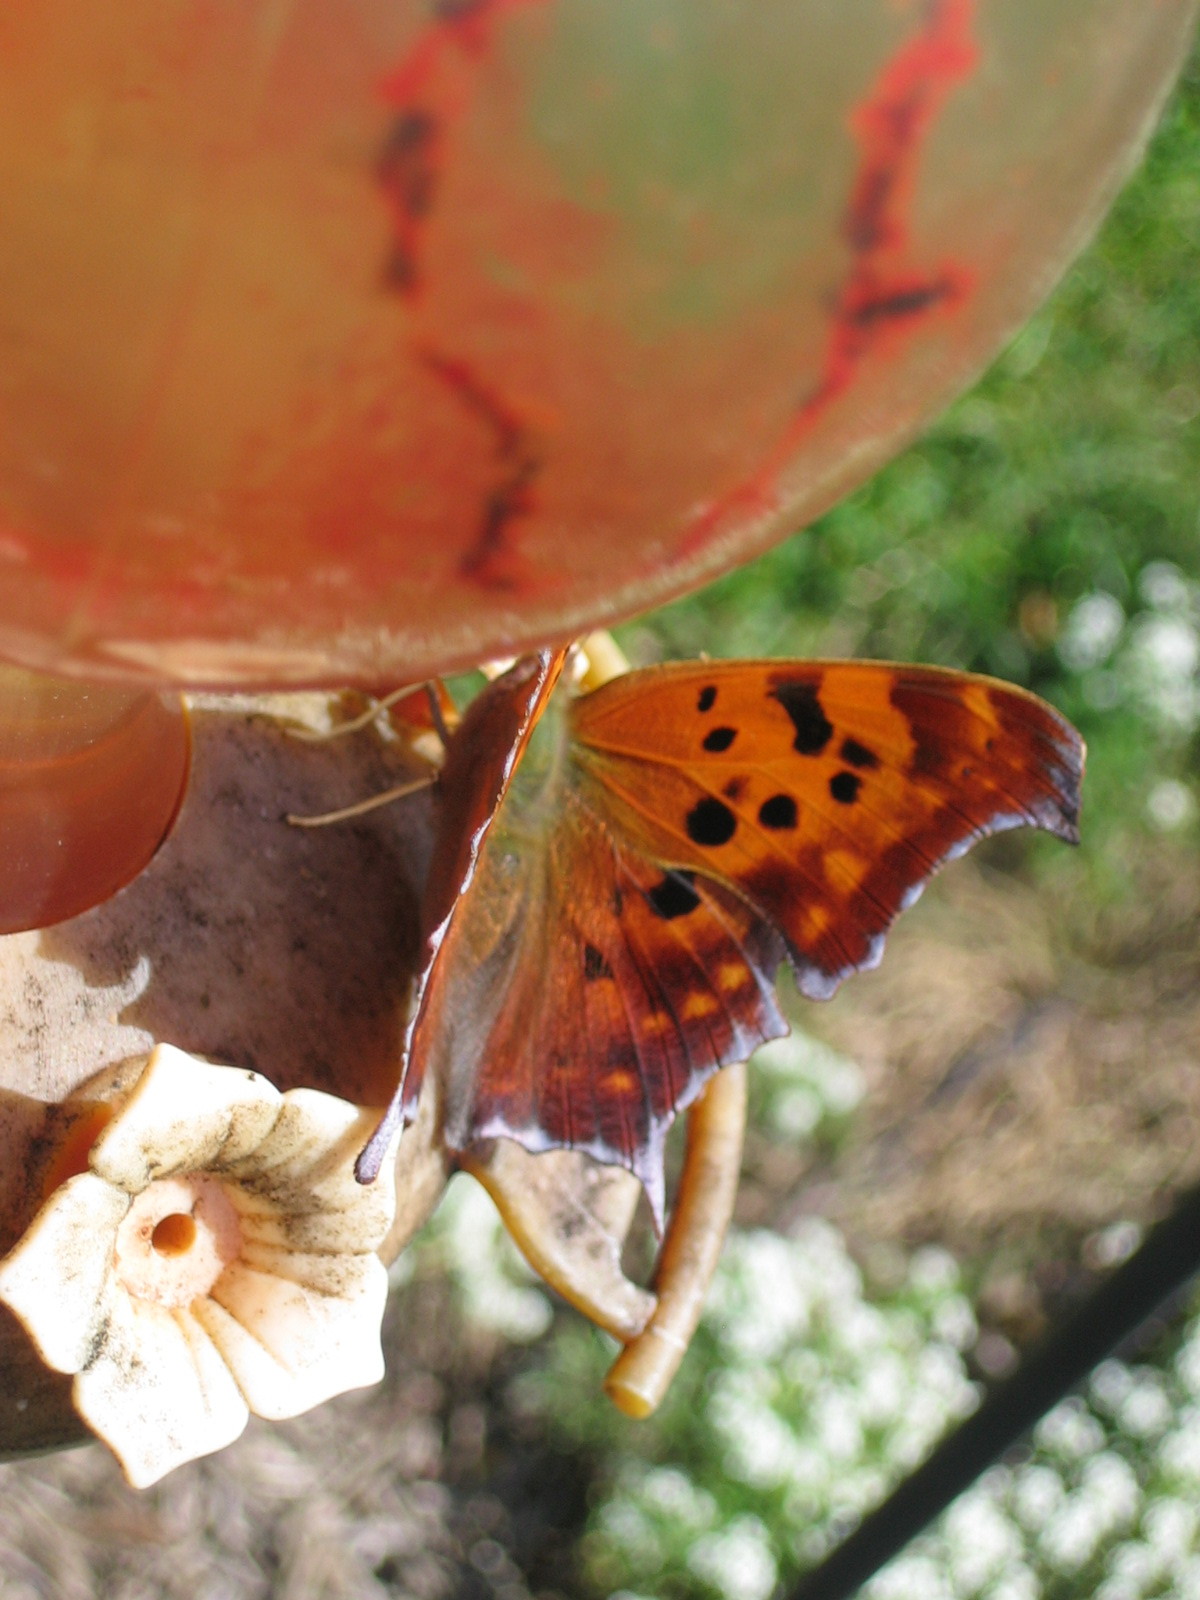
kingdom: Animalia
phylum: Arthropoda
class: Insecta
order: Lepidoptera
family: Nymphalidae
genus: Polygonia
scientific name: Polygonia interrogationis
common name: Question mark
